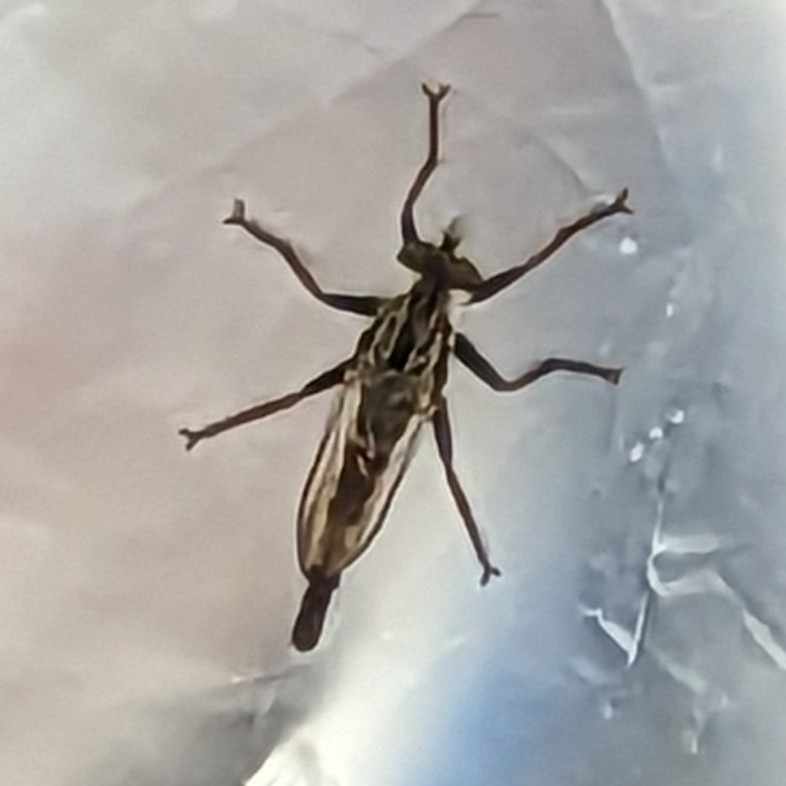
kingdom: Animalia
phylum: Arthropoda
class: Insecta
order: Diptera
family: Asilidae
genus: Efferia
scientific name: Efferia aestuans
